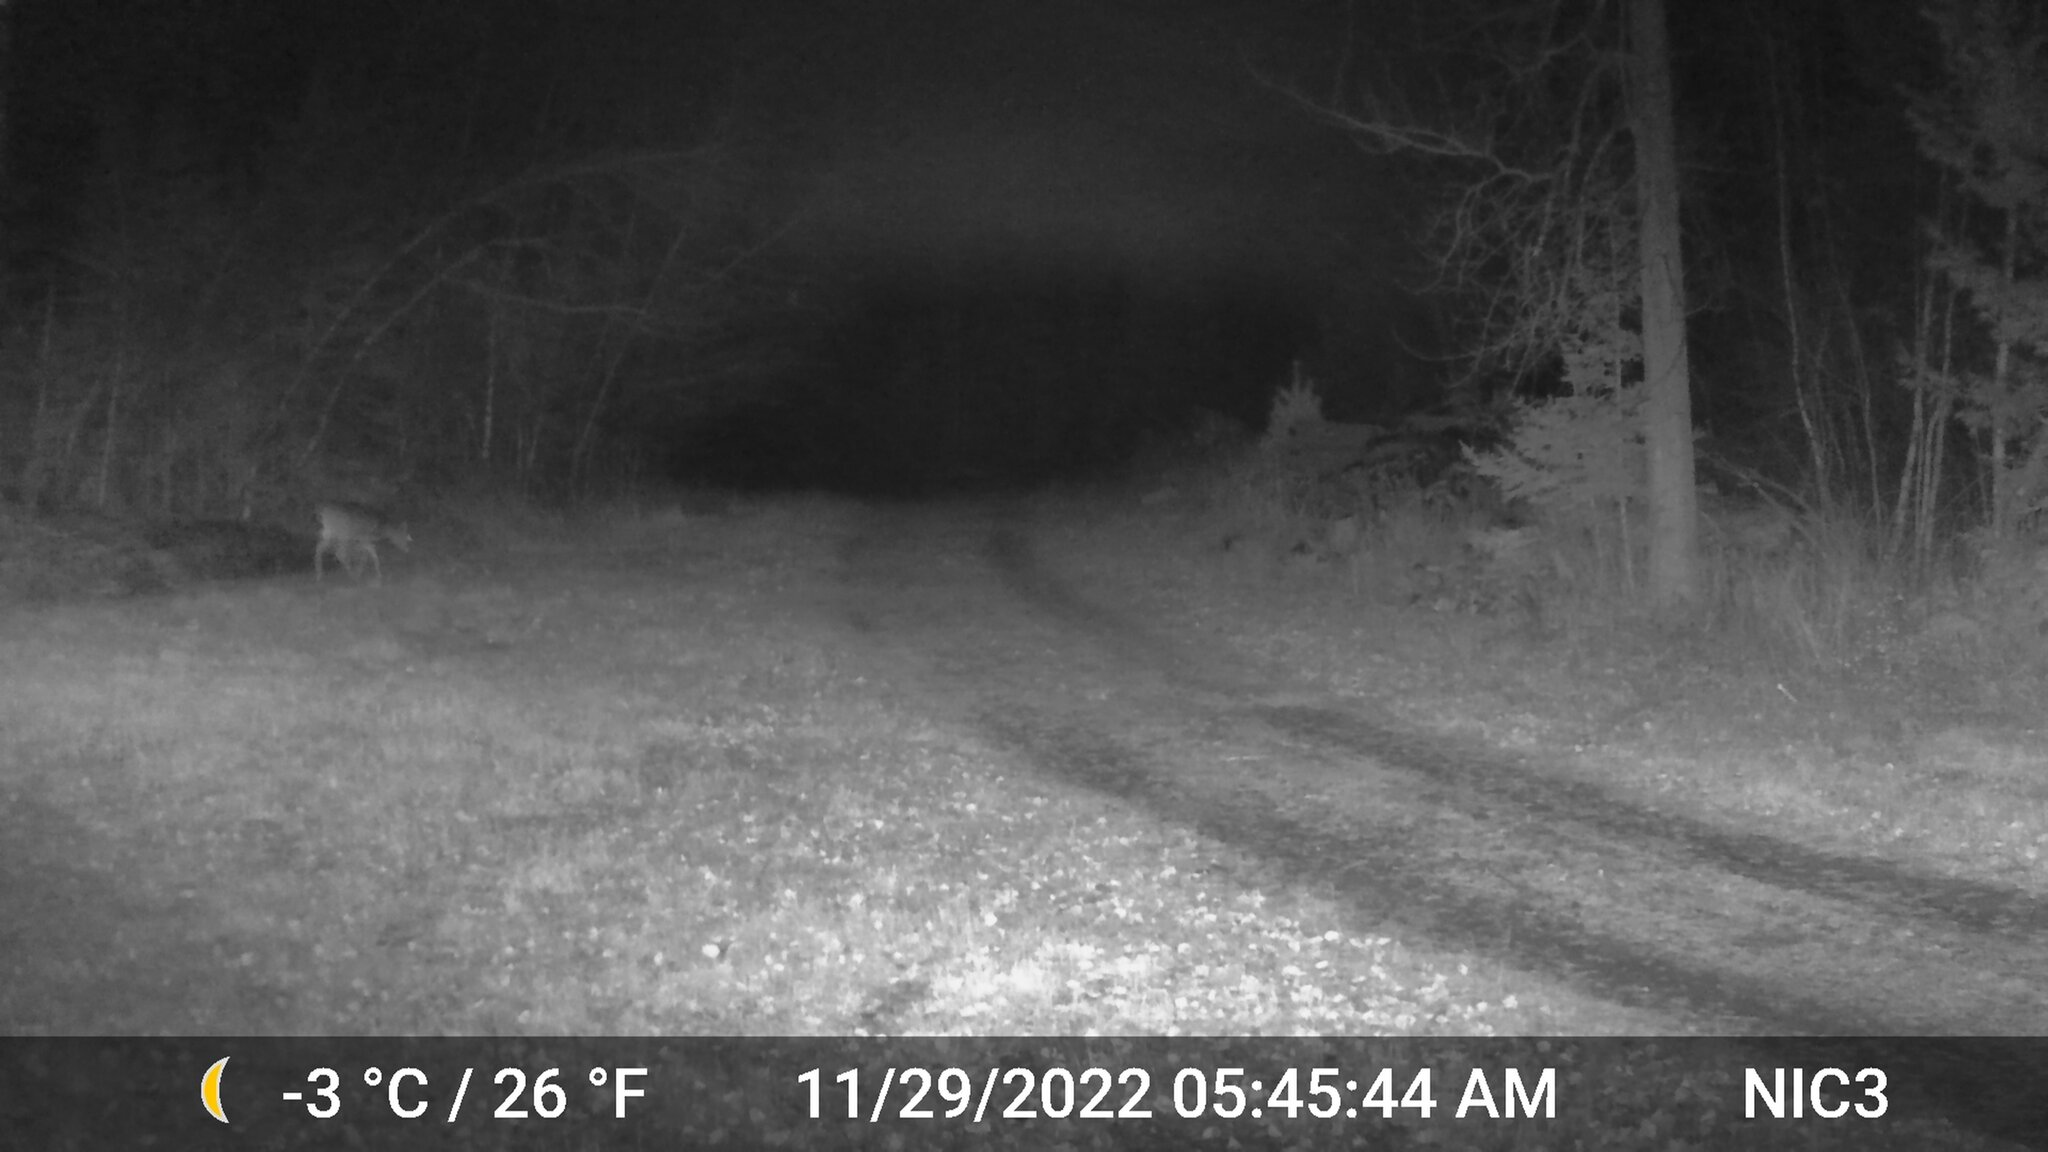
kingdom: Animalia
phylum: Chordata
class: Mammalia
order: Artiodactyla
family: Cervidae
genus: Odocoileus
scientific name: Odocoileus virginianus
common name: White-tailed deer
